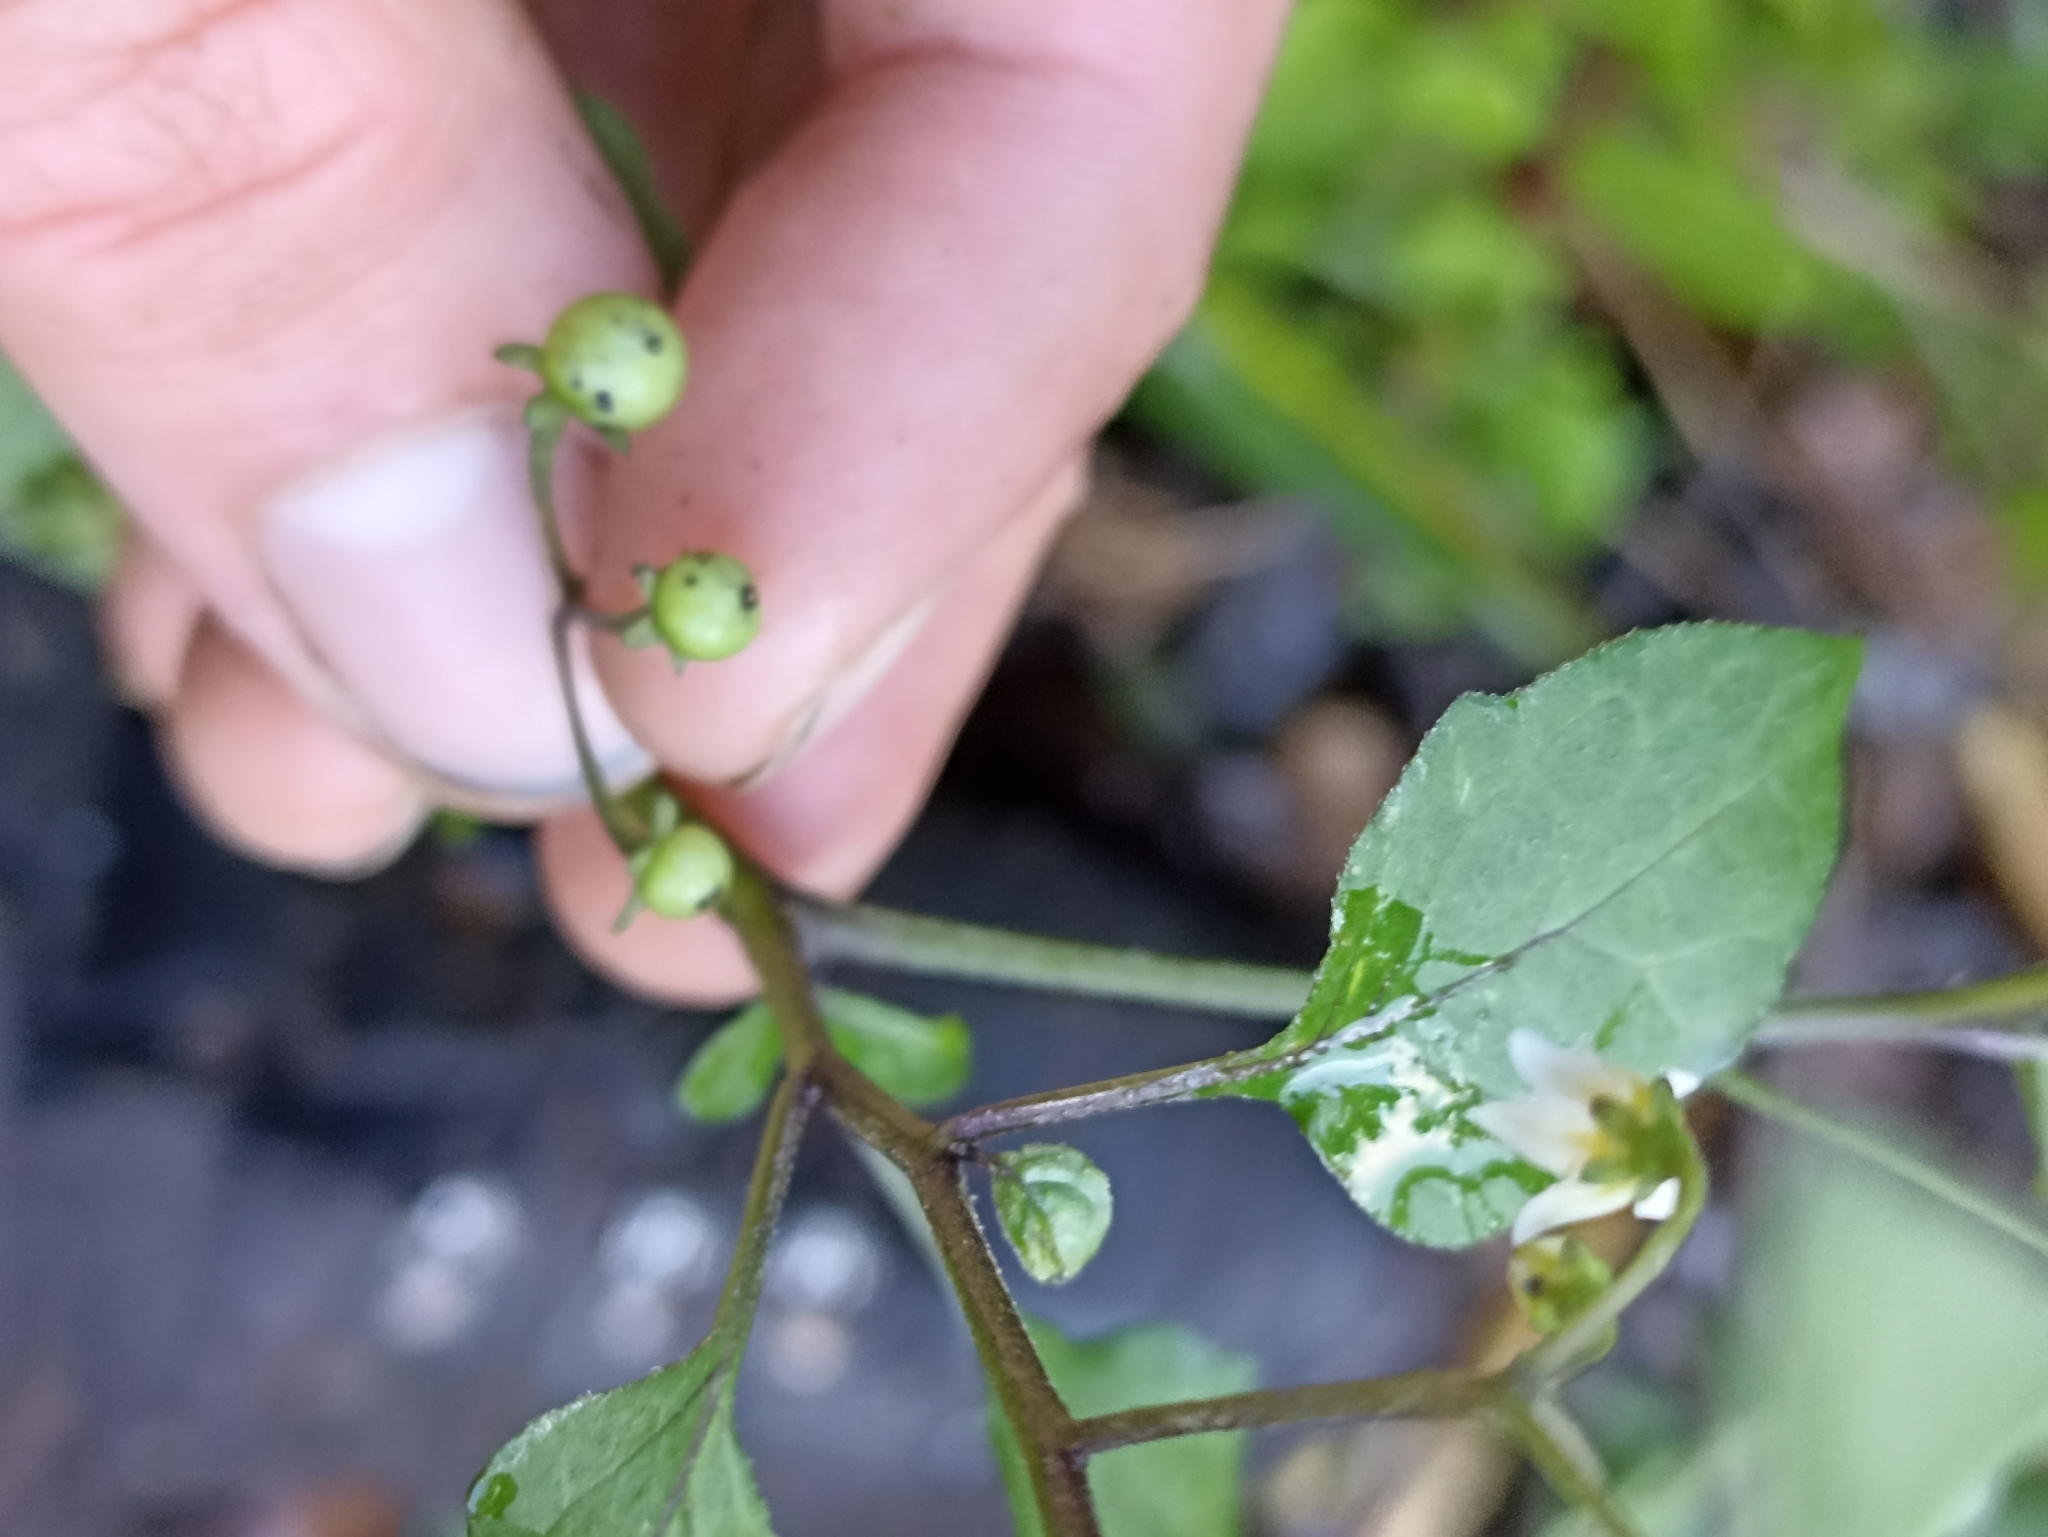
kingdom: Plantae
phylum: Tracheophyta
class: Magnoliopsida
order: Solanales
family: Solanaceae
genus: Solanum
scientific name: Solanum nigrum
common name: Black nightshade
